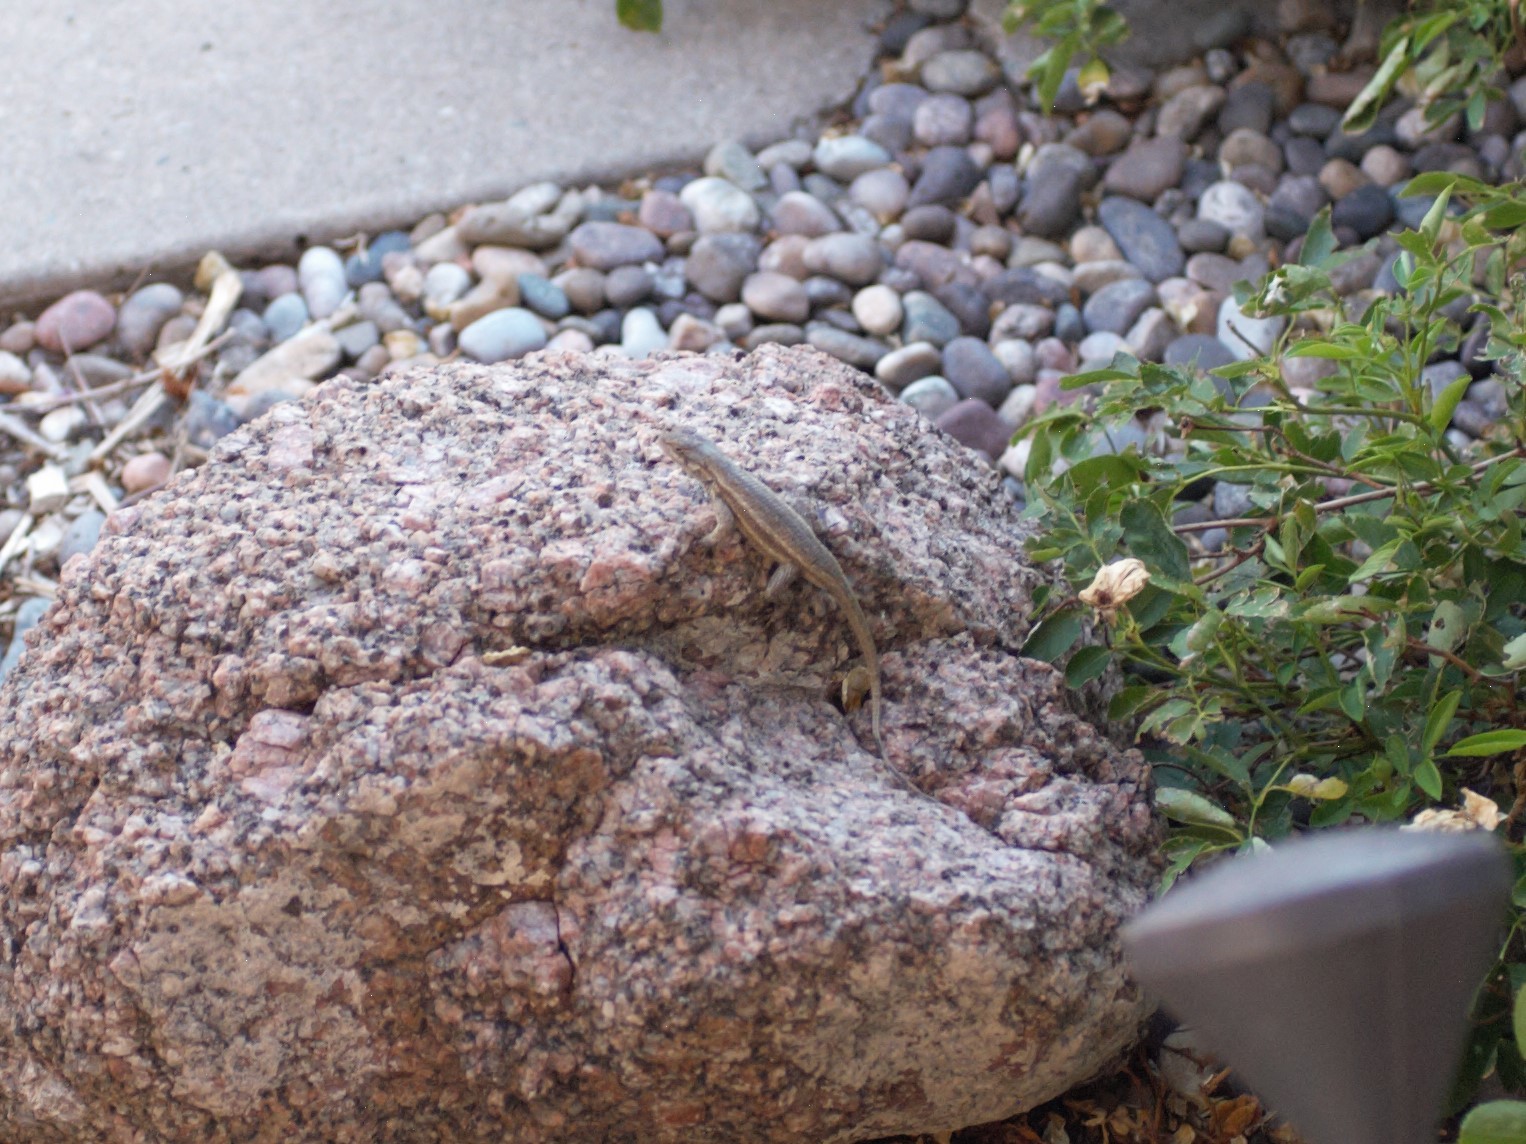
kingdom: Animalia
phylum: Chordata
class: Squamata
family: Phrynosomatidae
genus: Sceloporus
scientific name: Sceloporus cowlesi
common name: White sands prairie lizard
